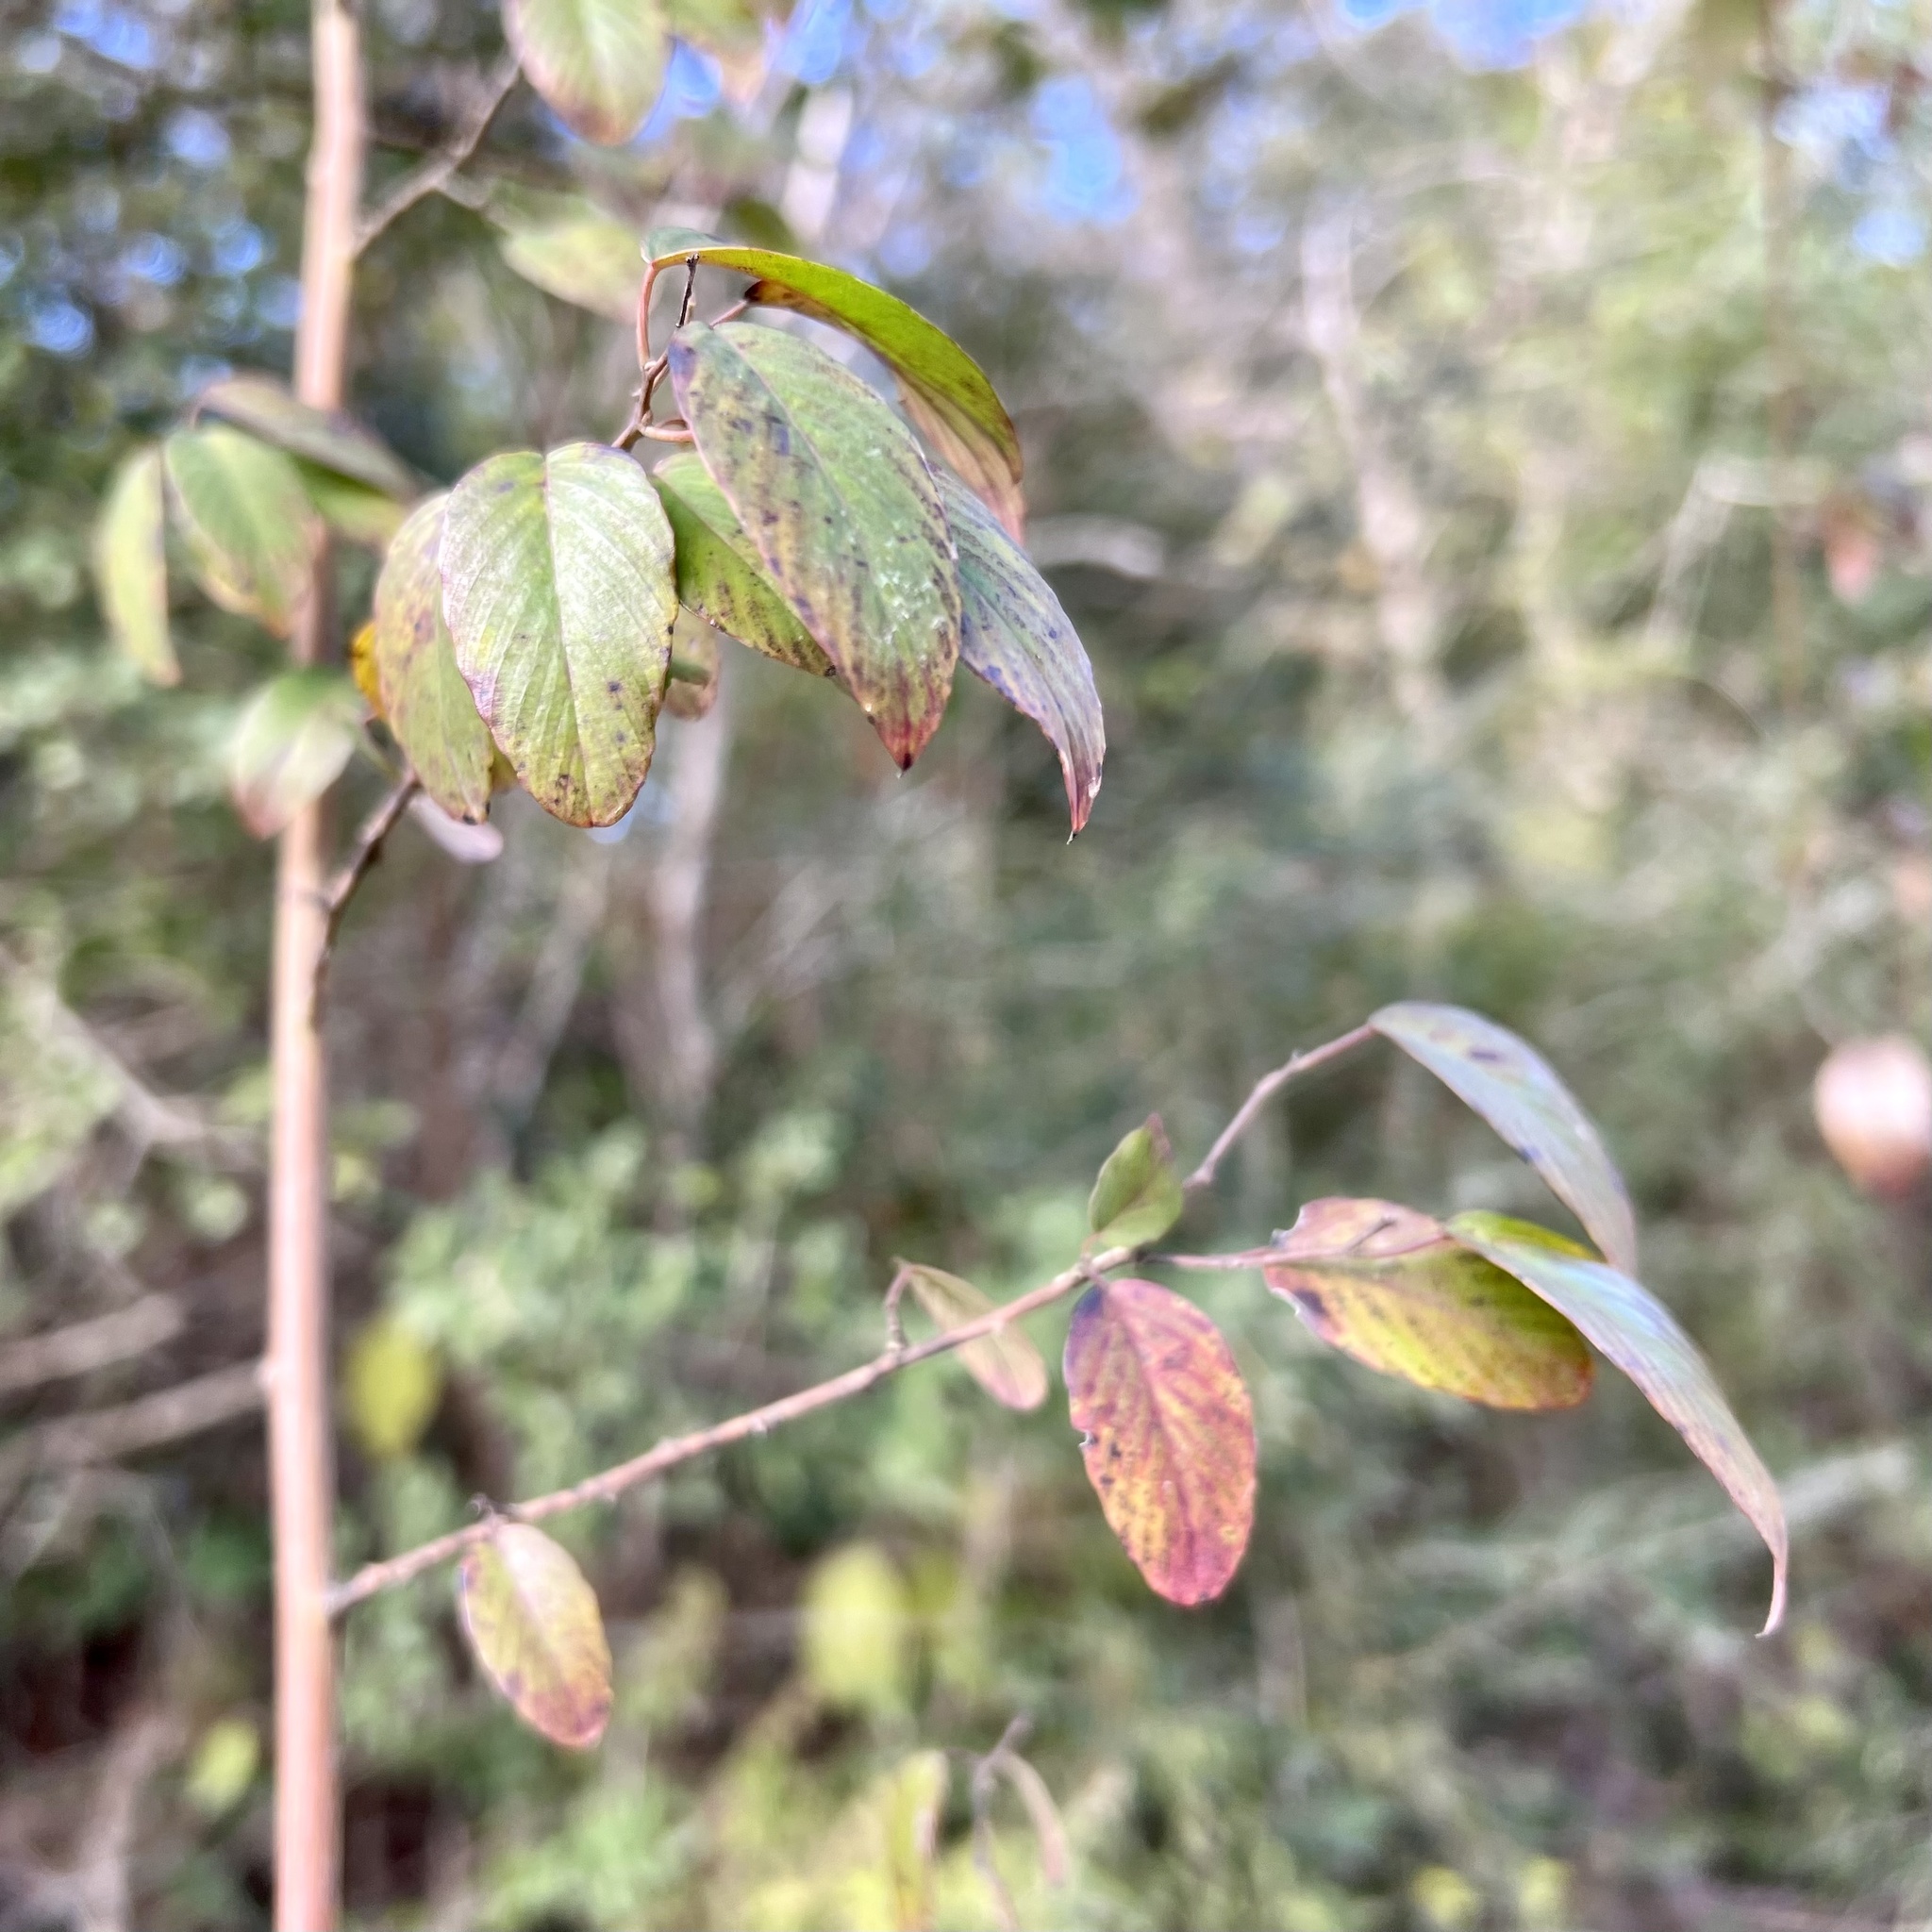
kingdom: Plantae
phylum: Tracheophyta
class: Magnoliopsida
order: Rosales
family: Rhamnaceae
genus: Berchemia
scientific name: Berchemia scandens
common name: Supplejack
